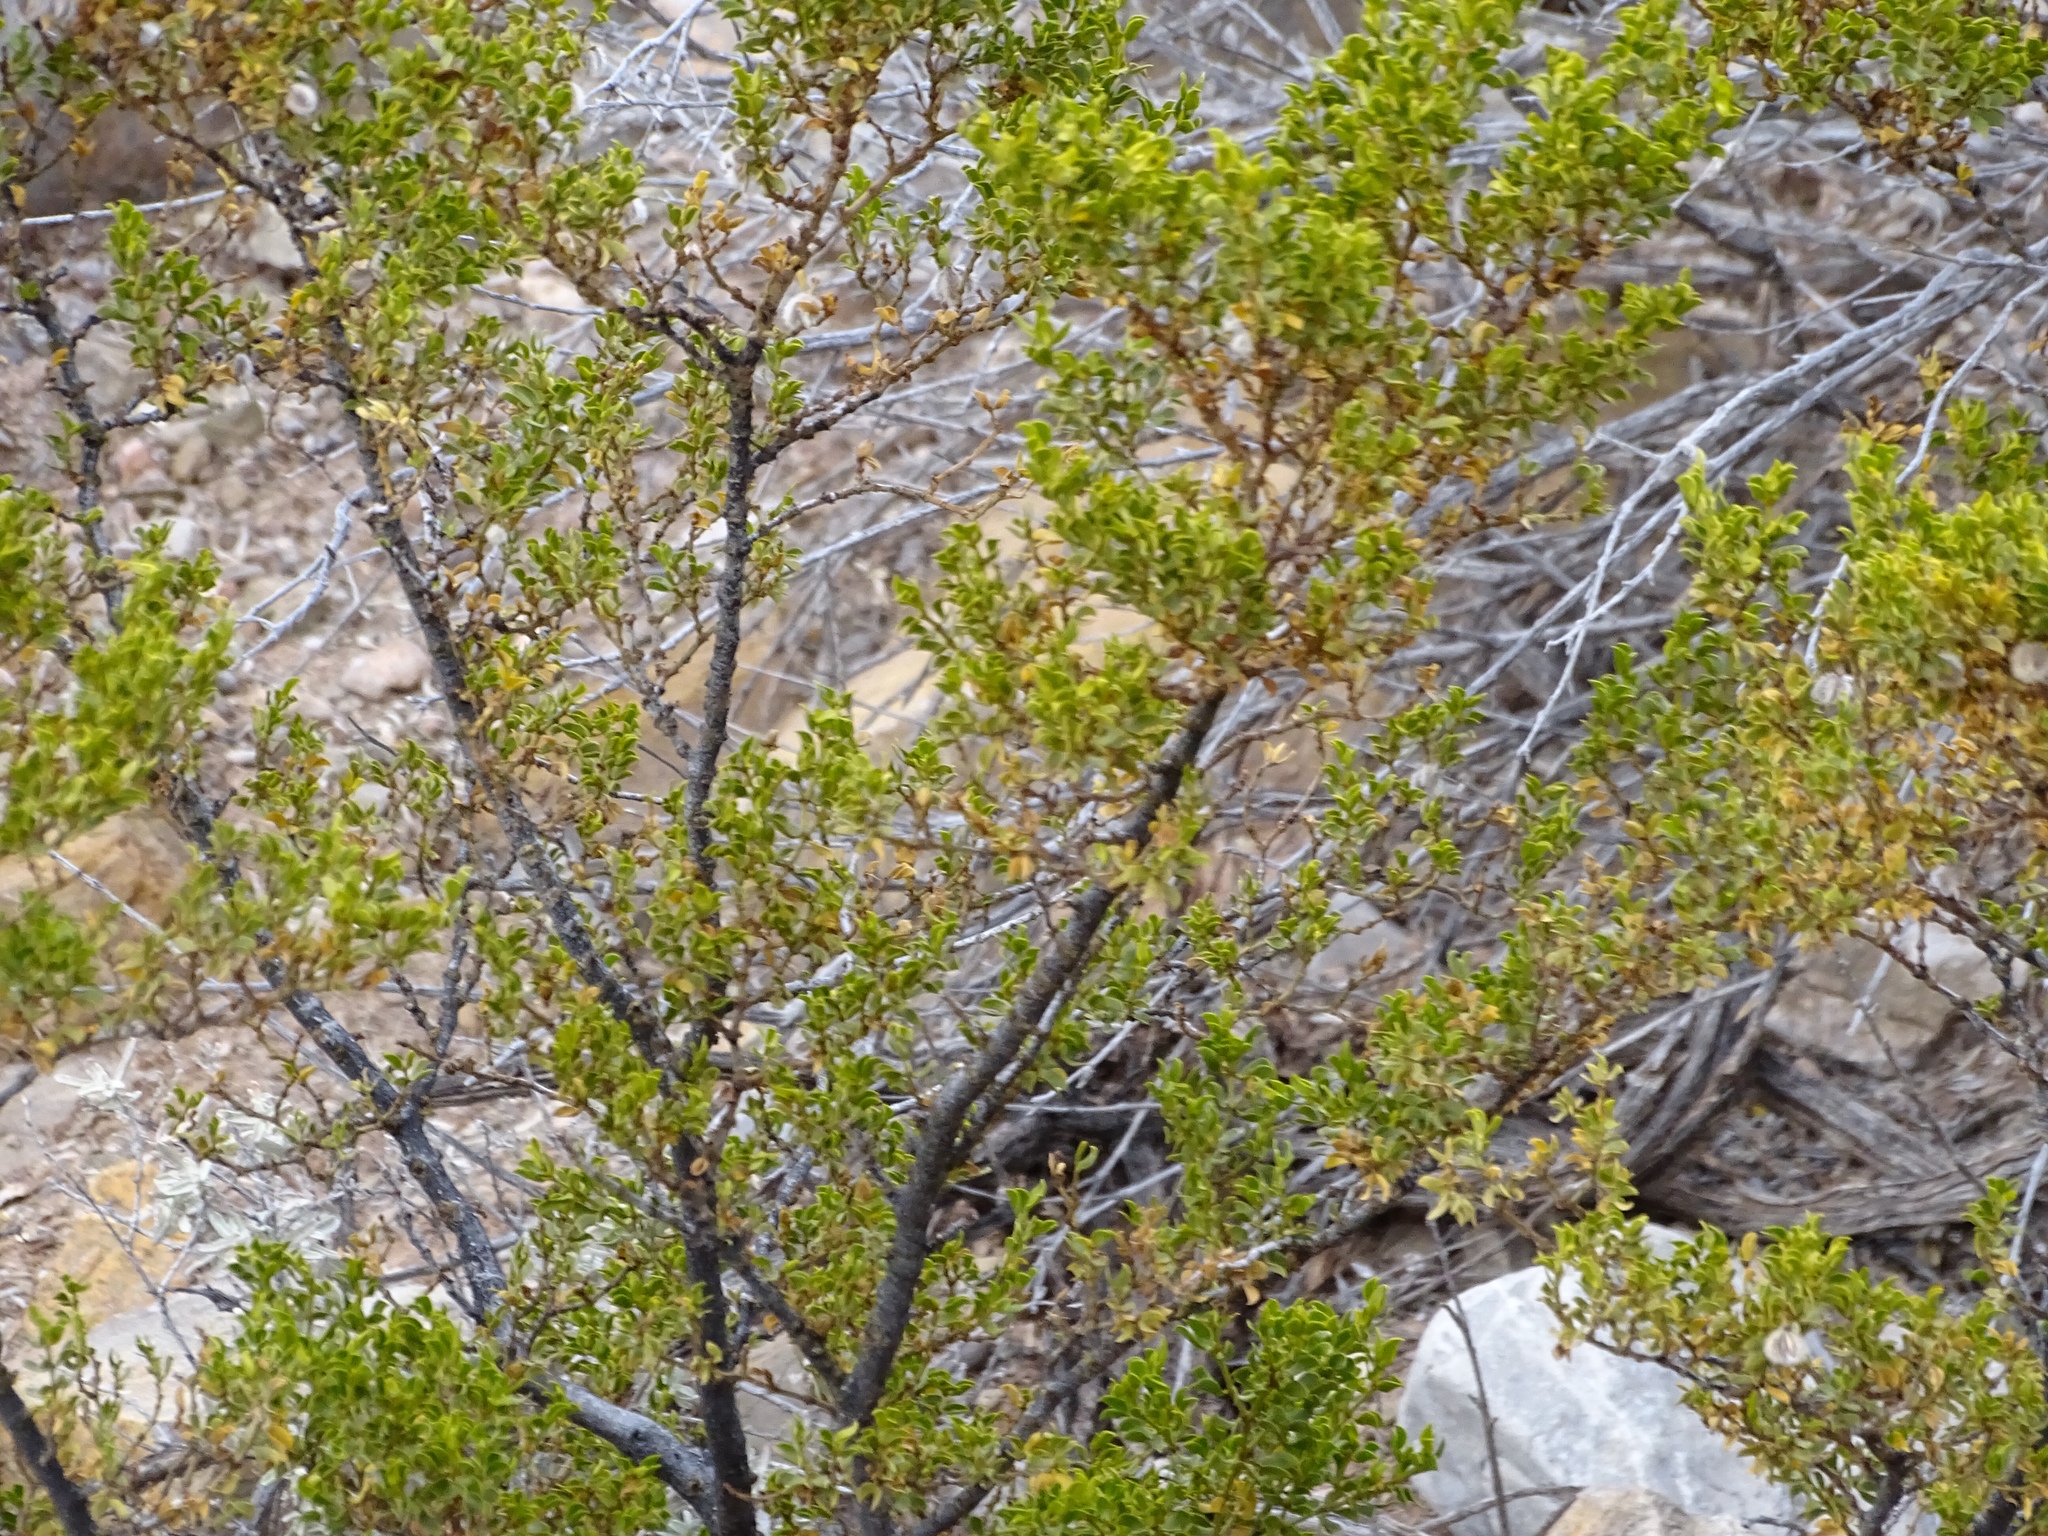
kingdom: Plantae
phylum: Tracheophyta
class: Magnoliopsida
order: Zygophyllales
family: Zygophyllaceae
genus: Larrea
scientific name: Larrea tridentata
